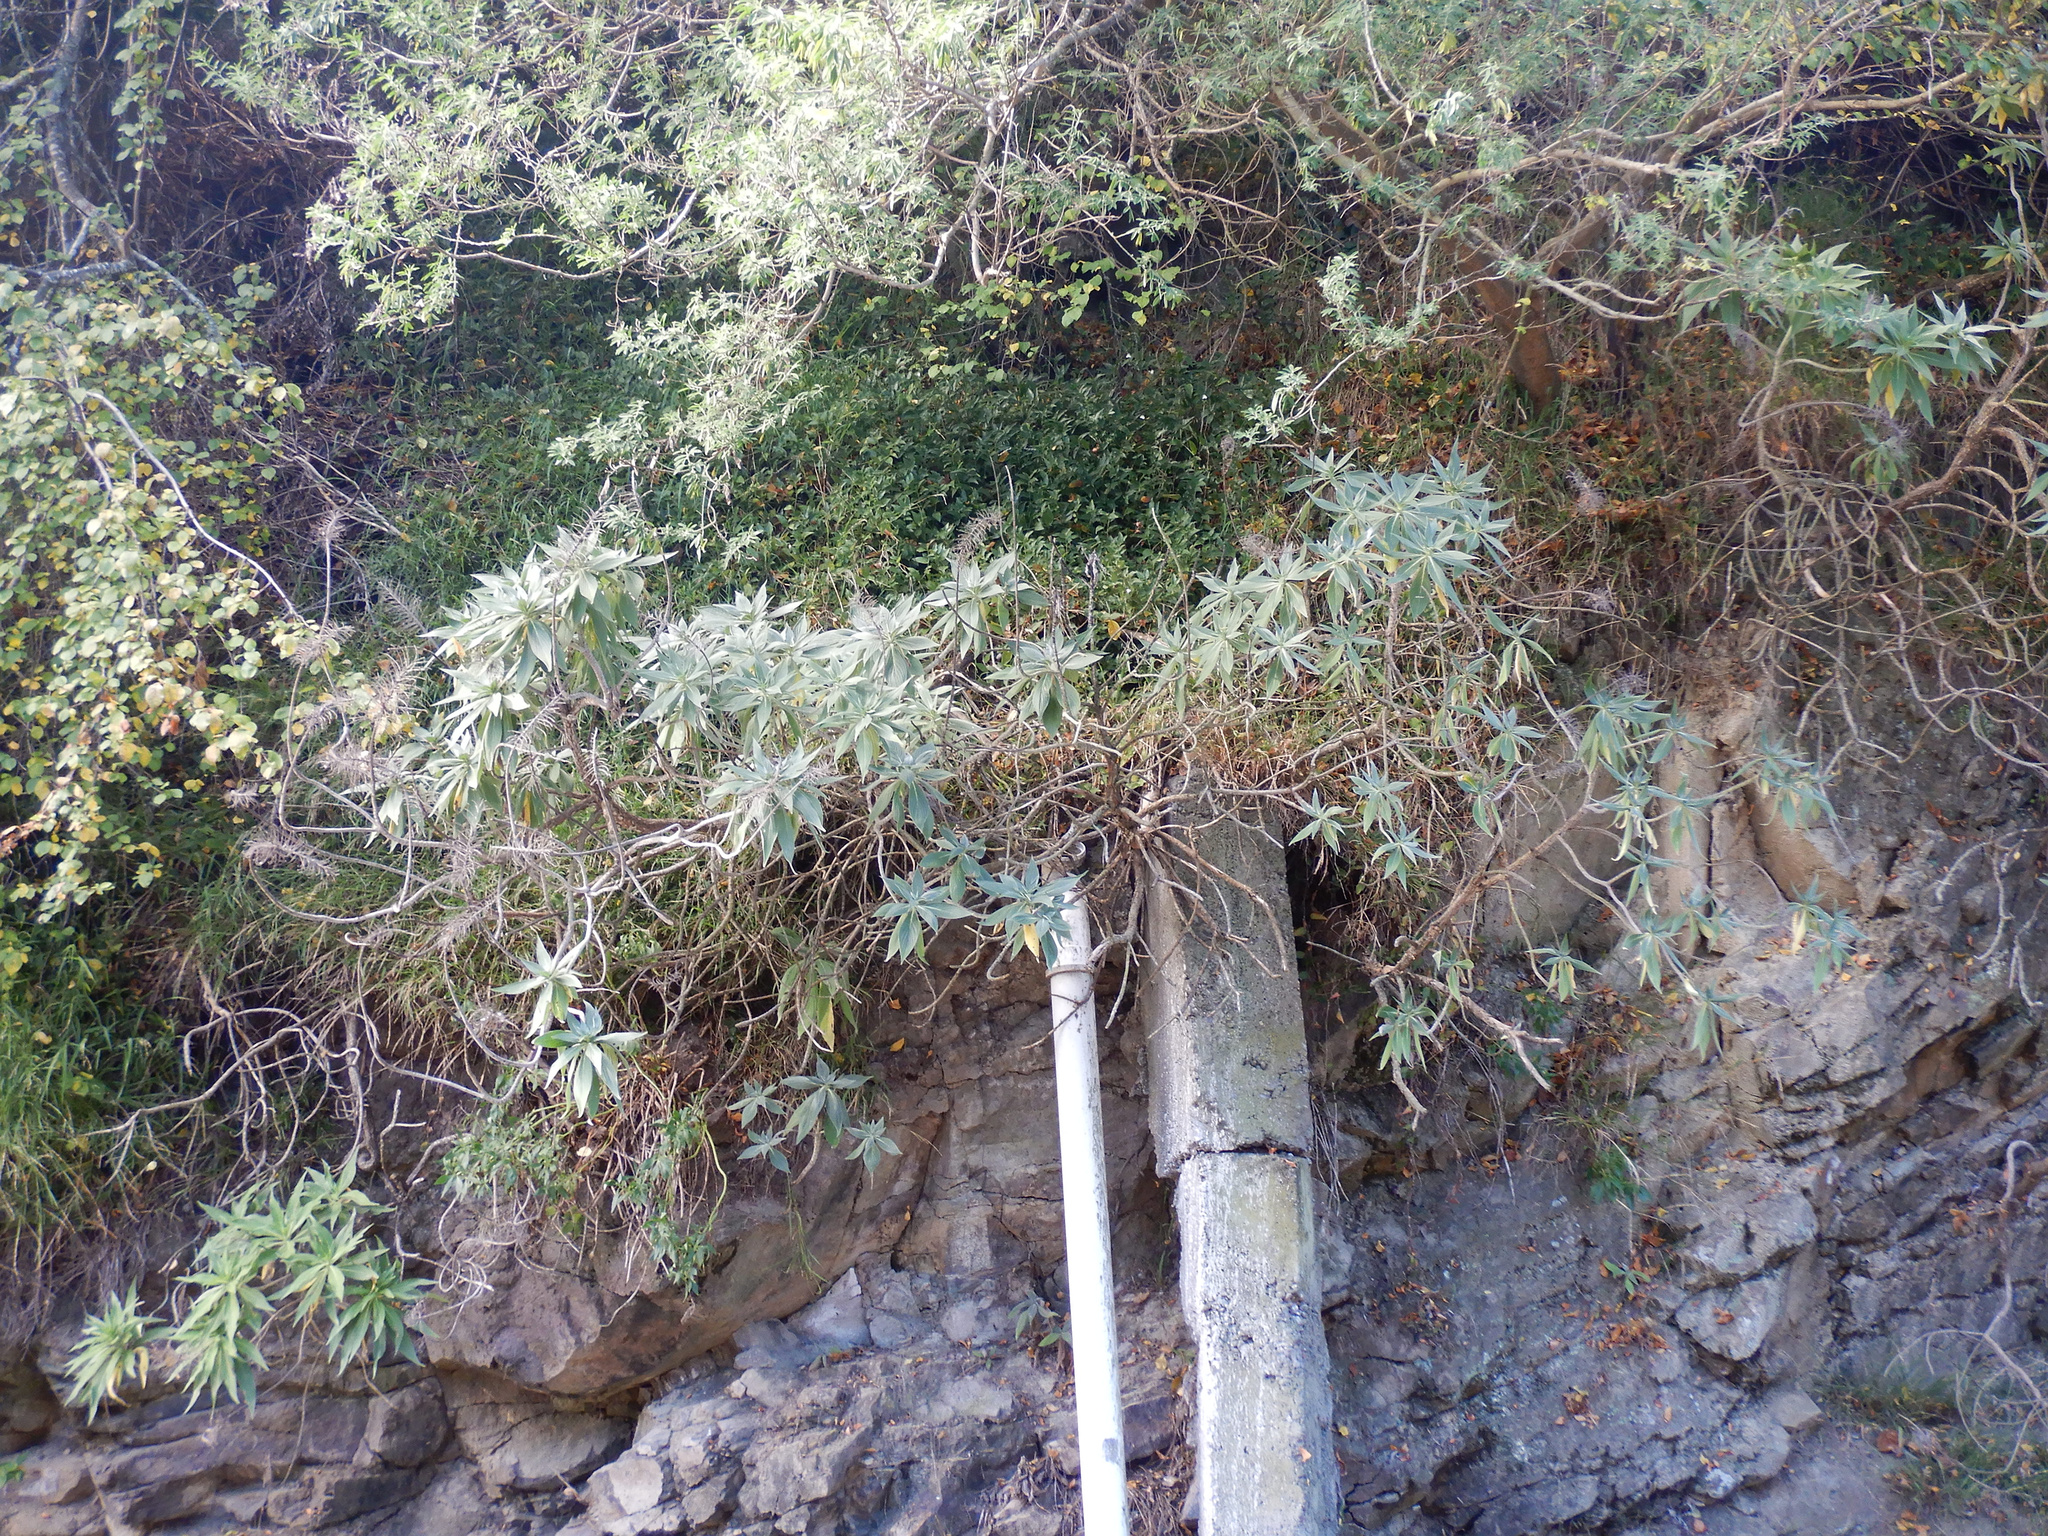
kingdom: Plantae
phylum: Tracheophyta
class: Magnoliopsida
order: Boraginales
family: Boraginaceae
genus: Echium
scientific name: Echium candicans
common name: Pride of madeira
